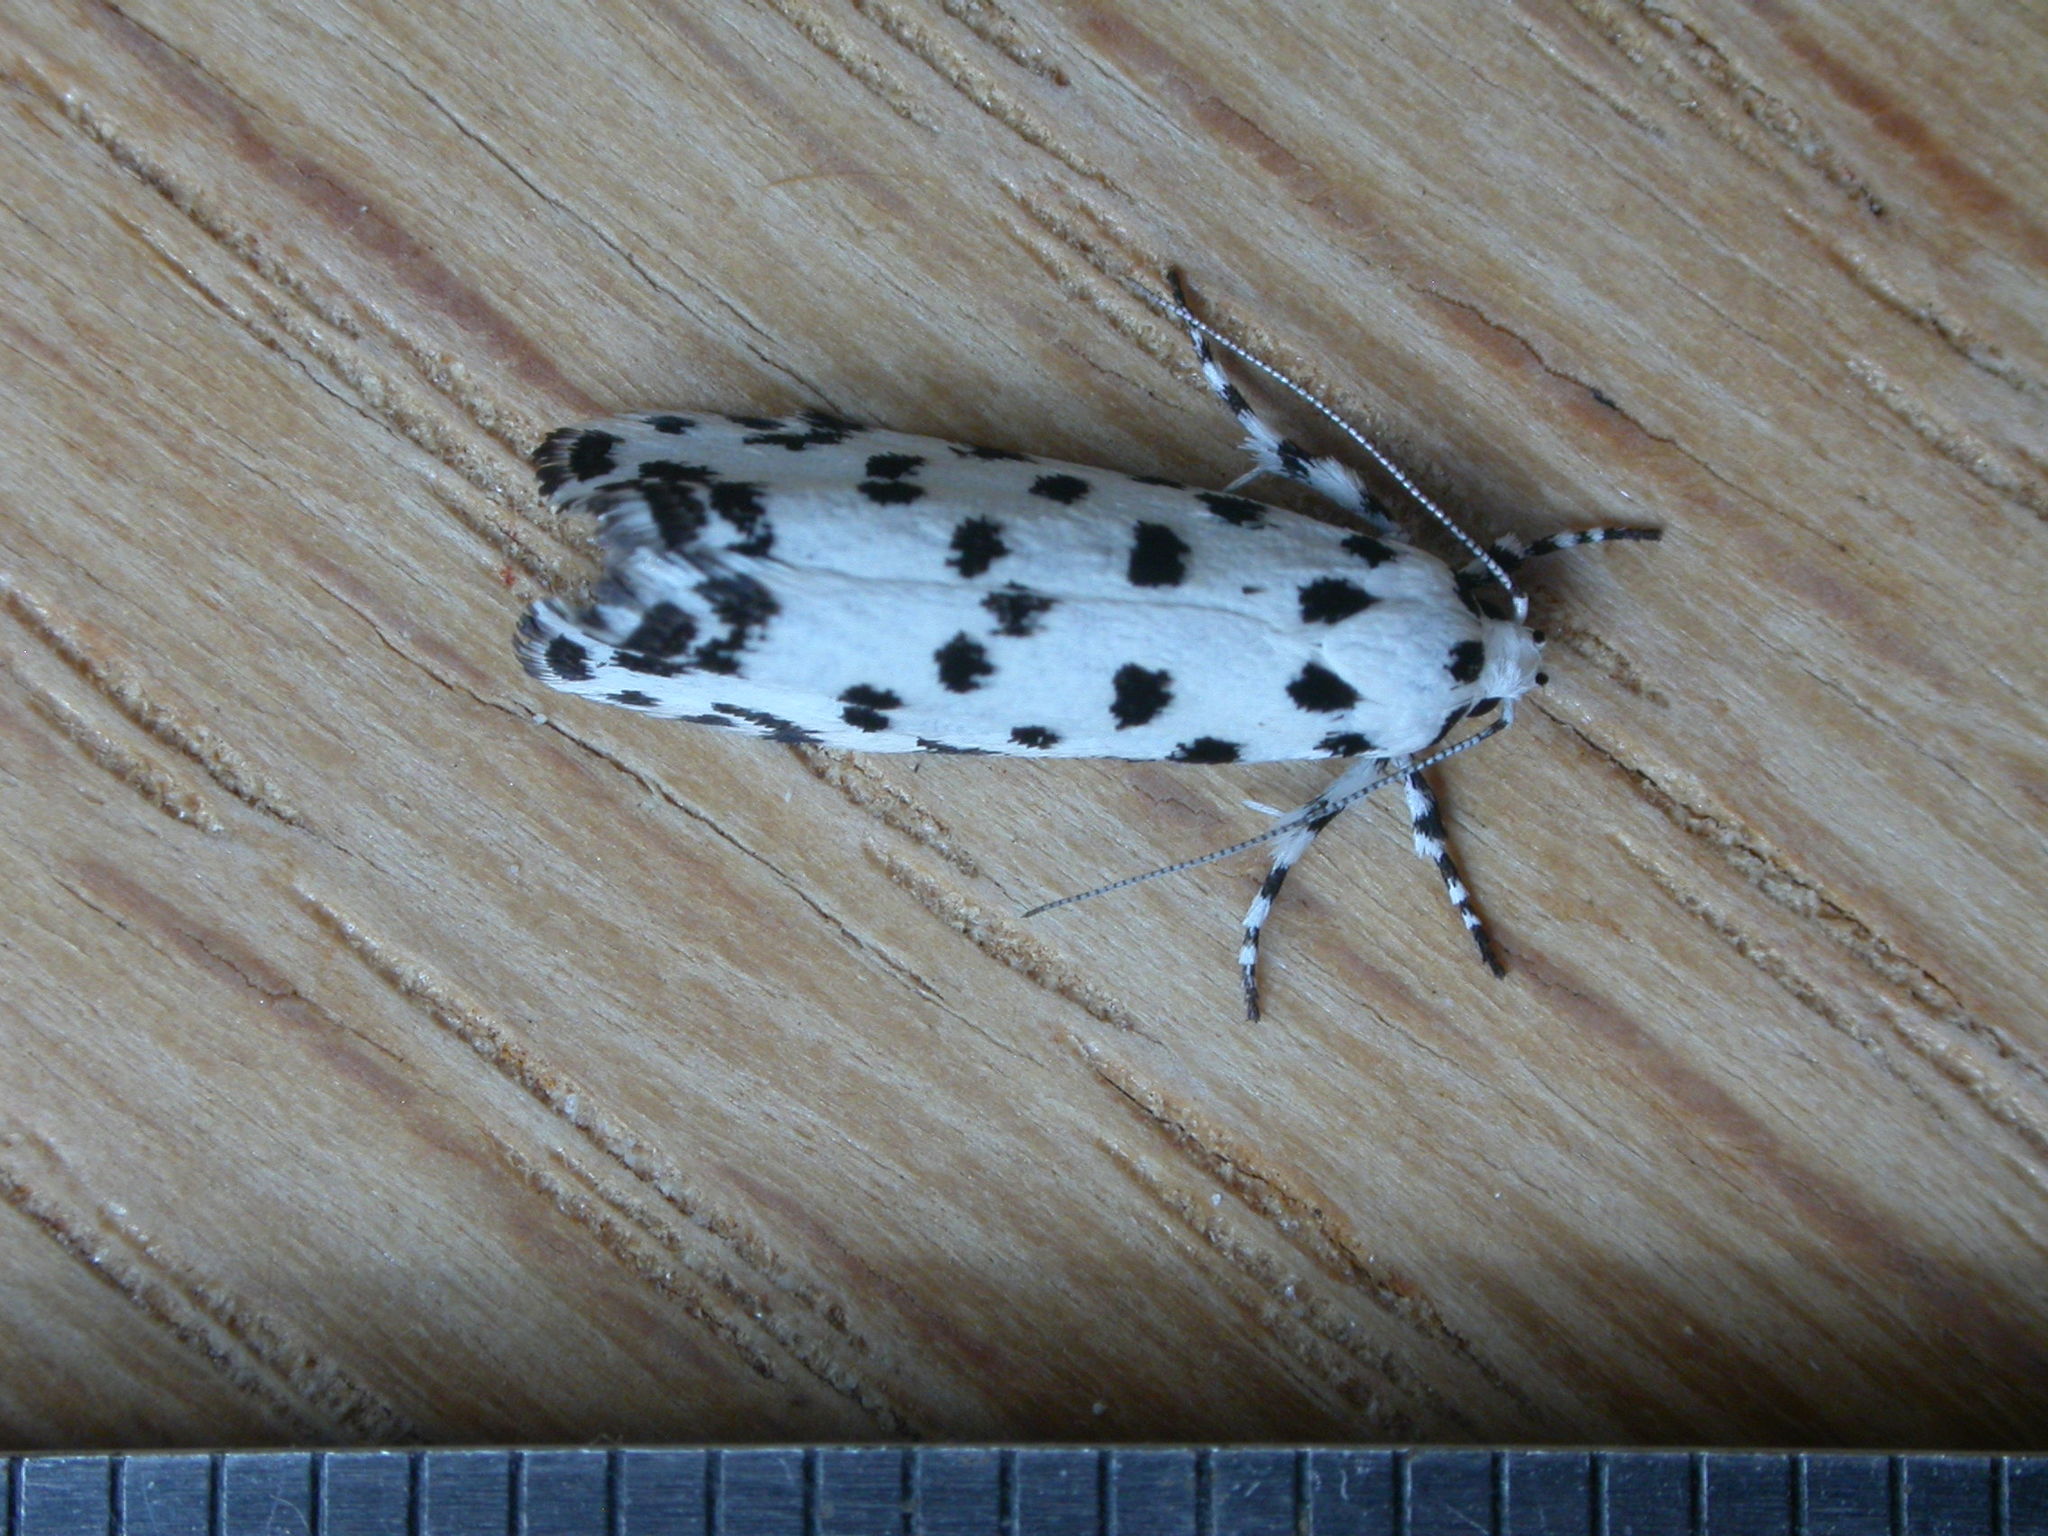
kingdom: Animalia
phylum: Arthropoda
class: Insecta
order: Lepidoptera
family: Xyloryctidae
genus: Lichenaula
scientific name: Lichenaula maculosa
